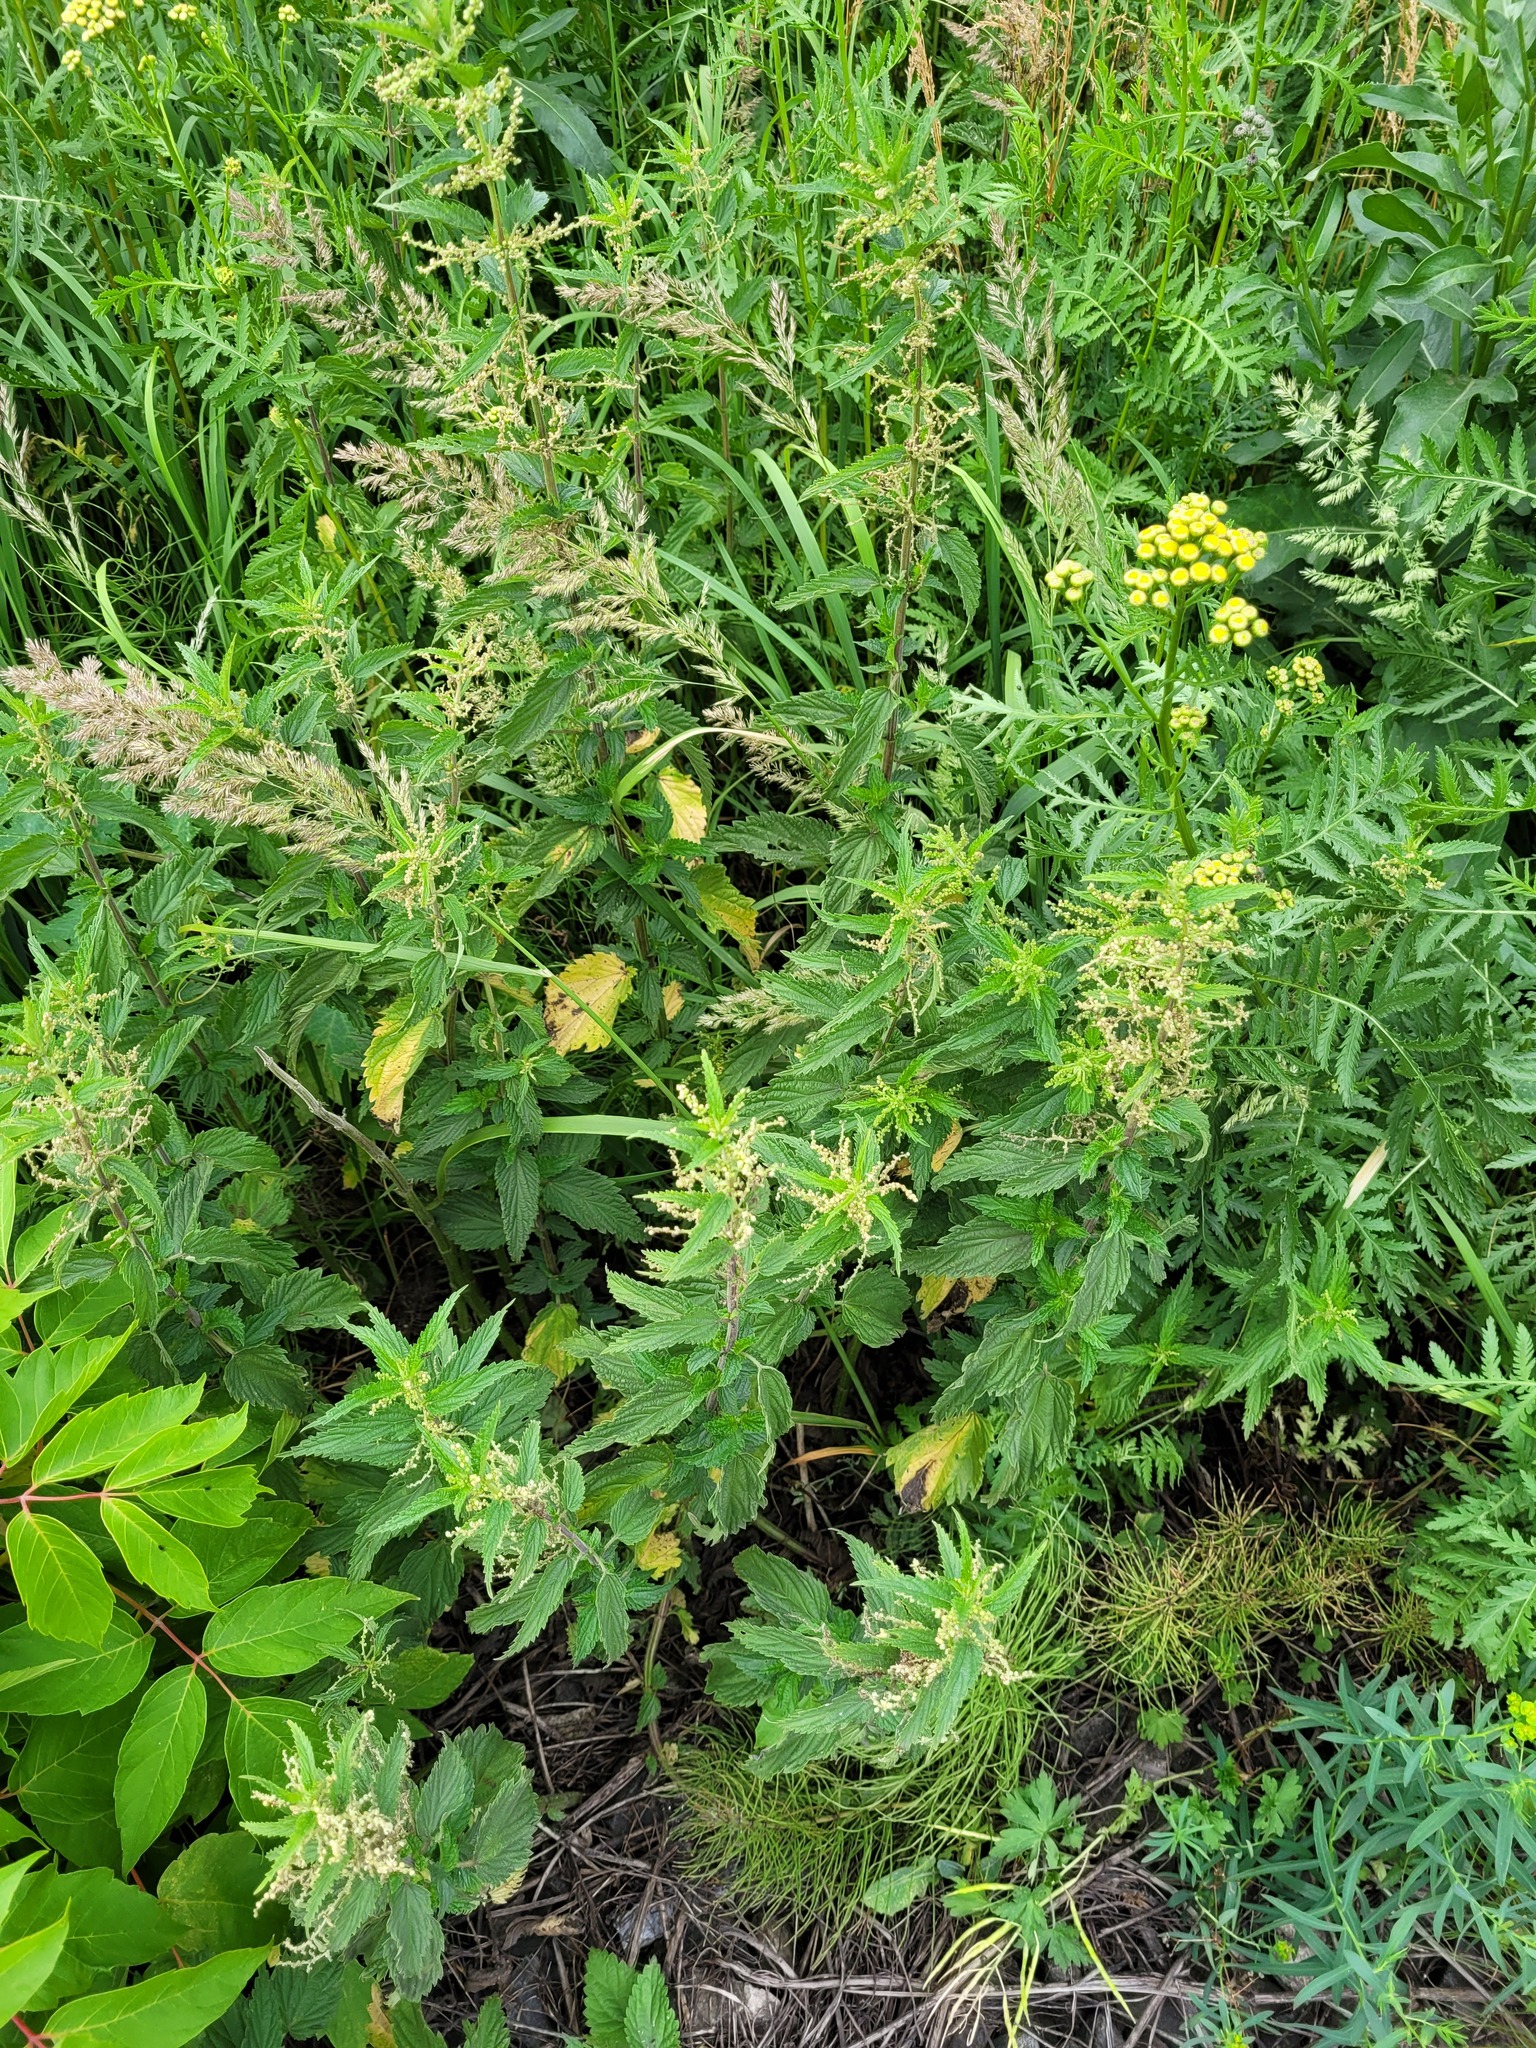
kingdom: Plantae
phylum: Tracheophyta
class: Magnoliopsida
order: Rosales
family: Urticaceae
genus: Urtica
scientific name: Urtica dioica
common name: Common nettle
